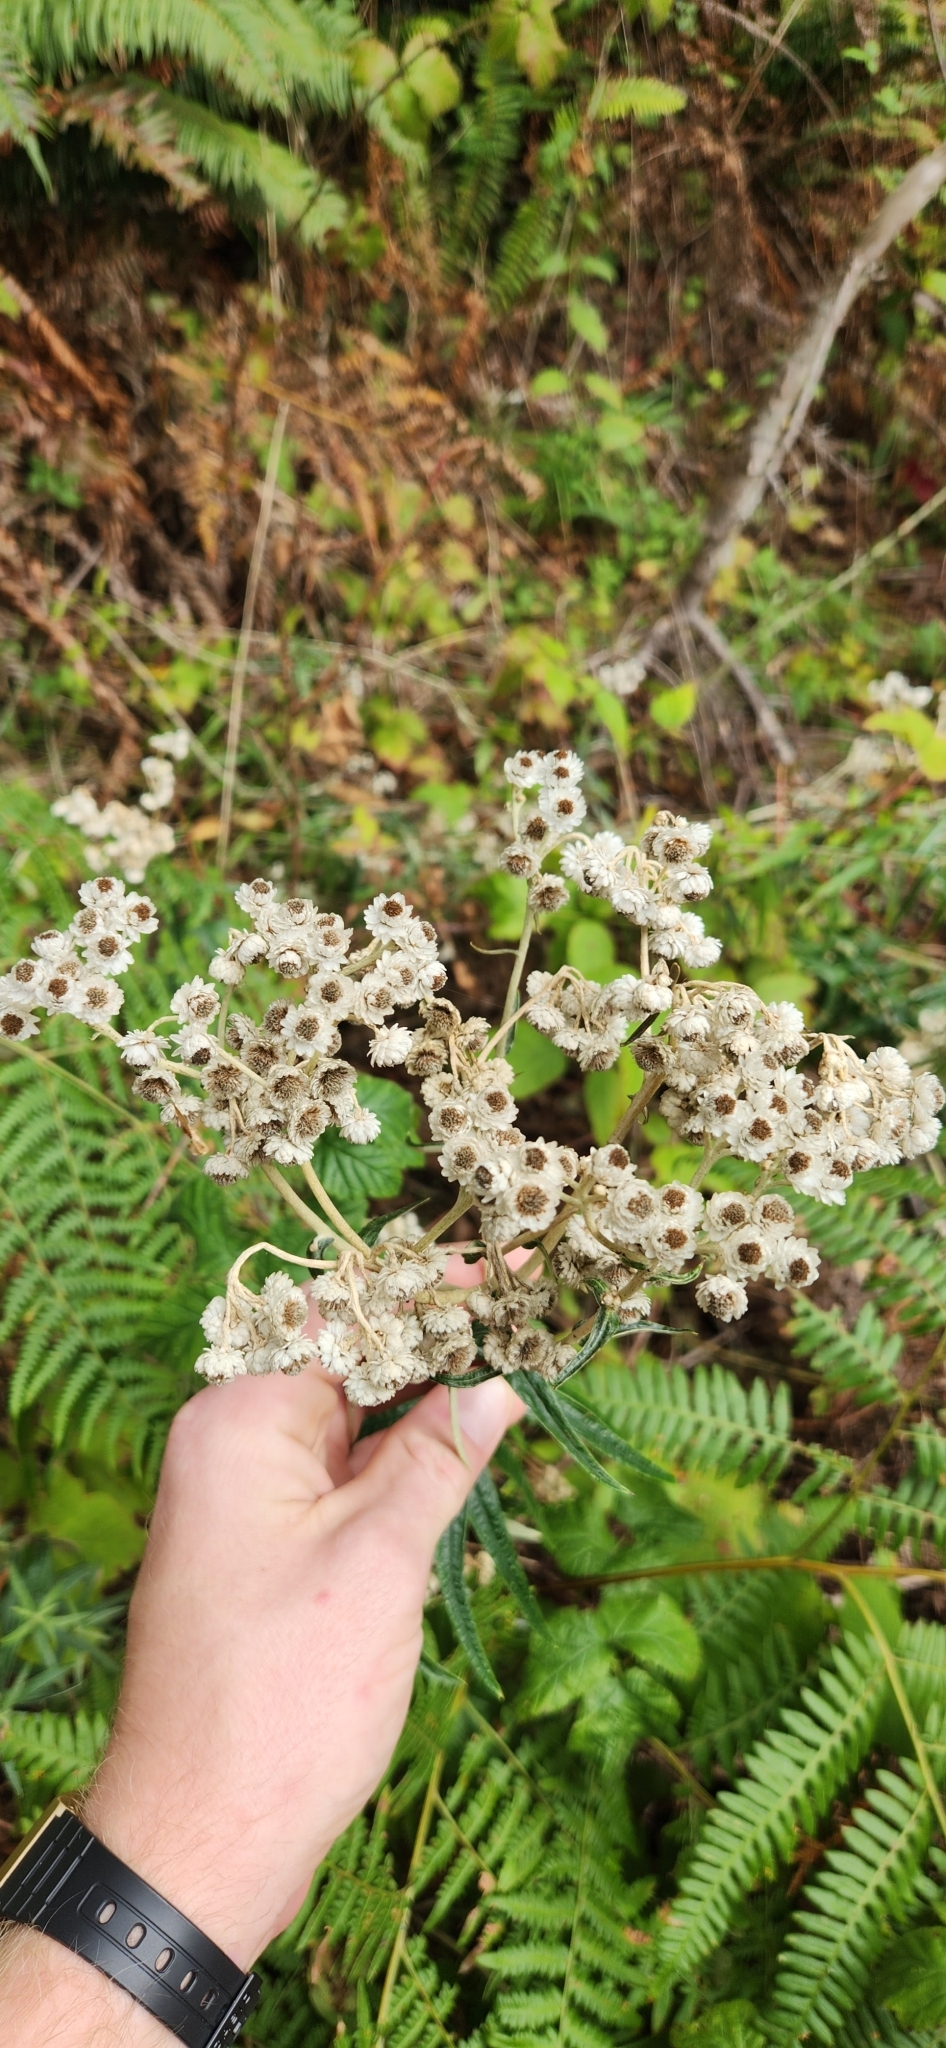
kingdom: Plantae
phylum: Tracheophyta
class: Magnoliopsida
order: Asterales
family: Asteraceae
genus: Anaphalis
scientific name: Anaphalis margaritacea
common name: Pearly everlasting
